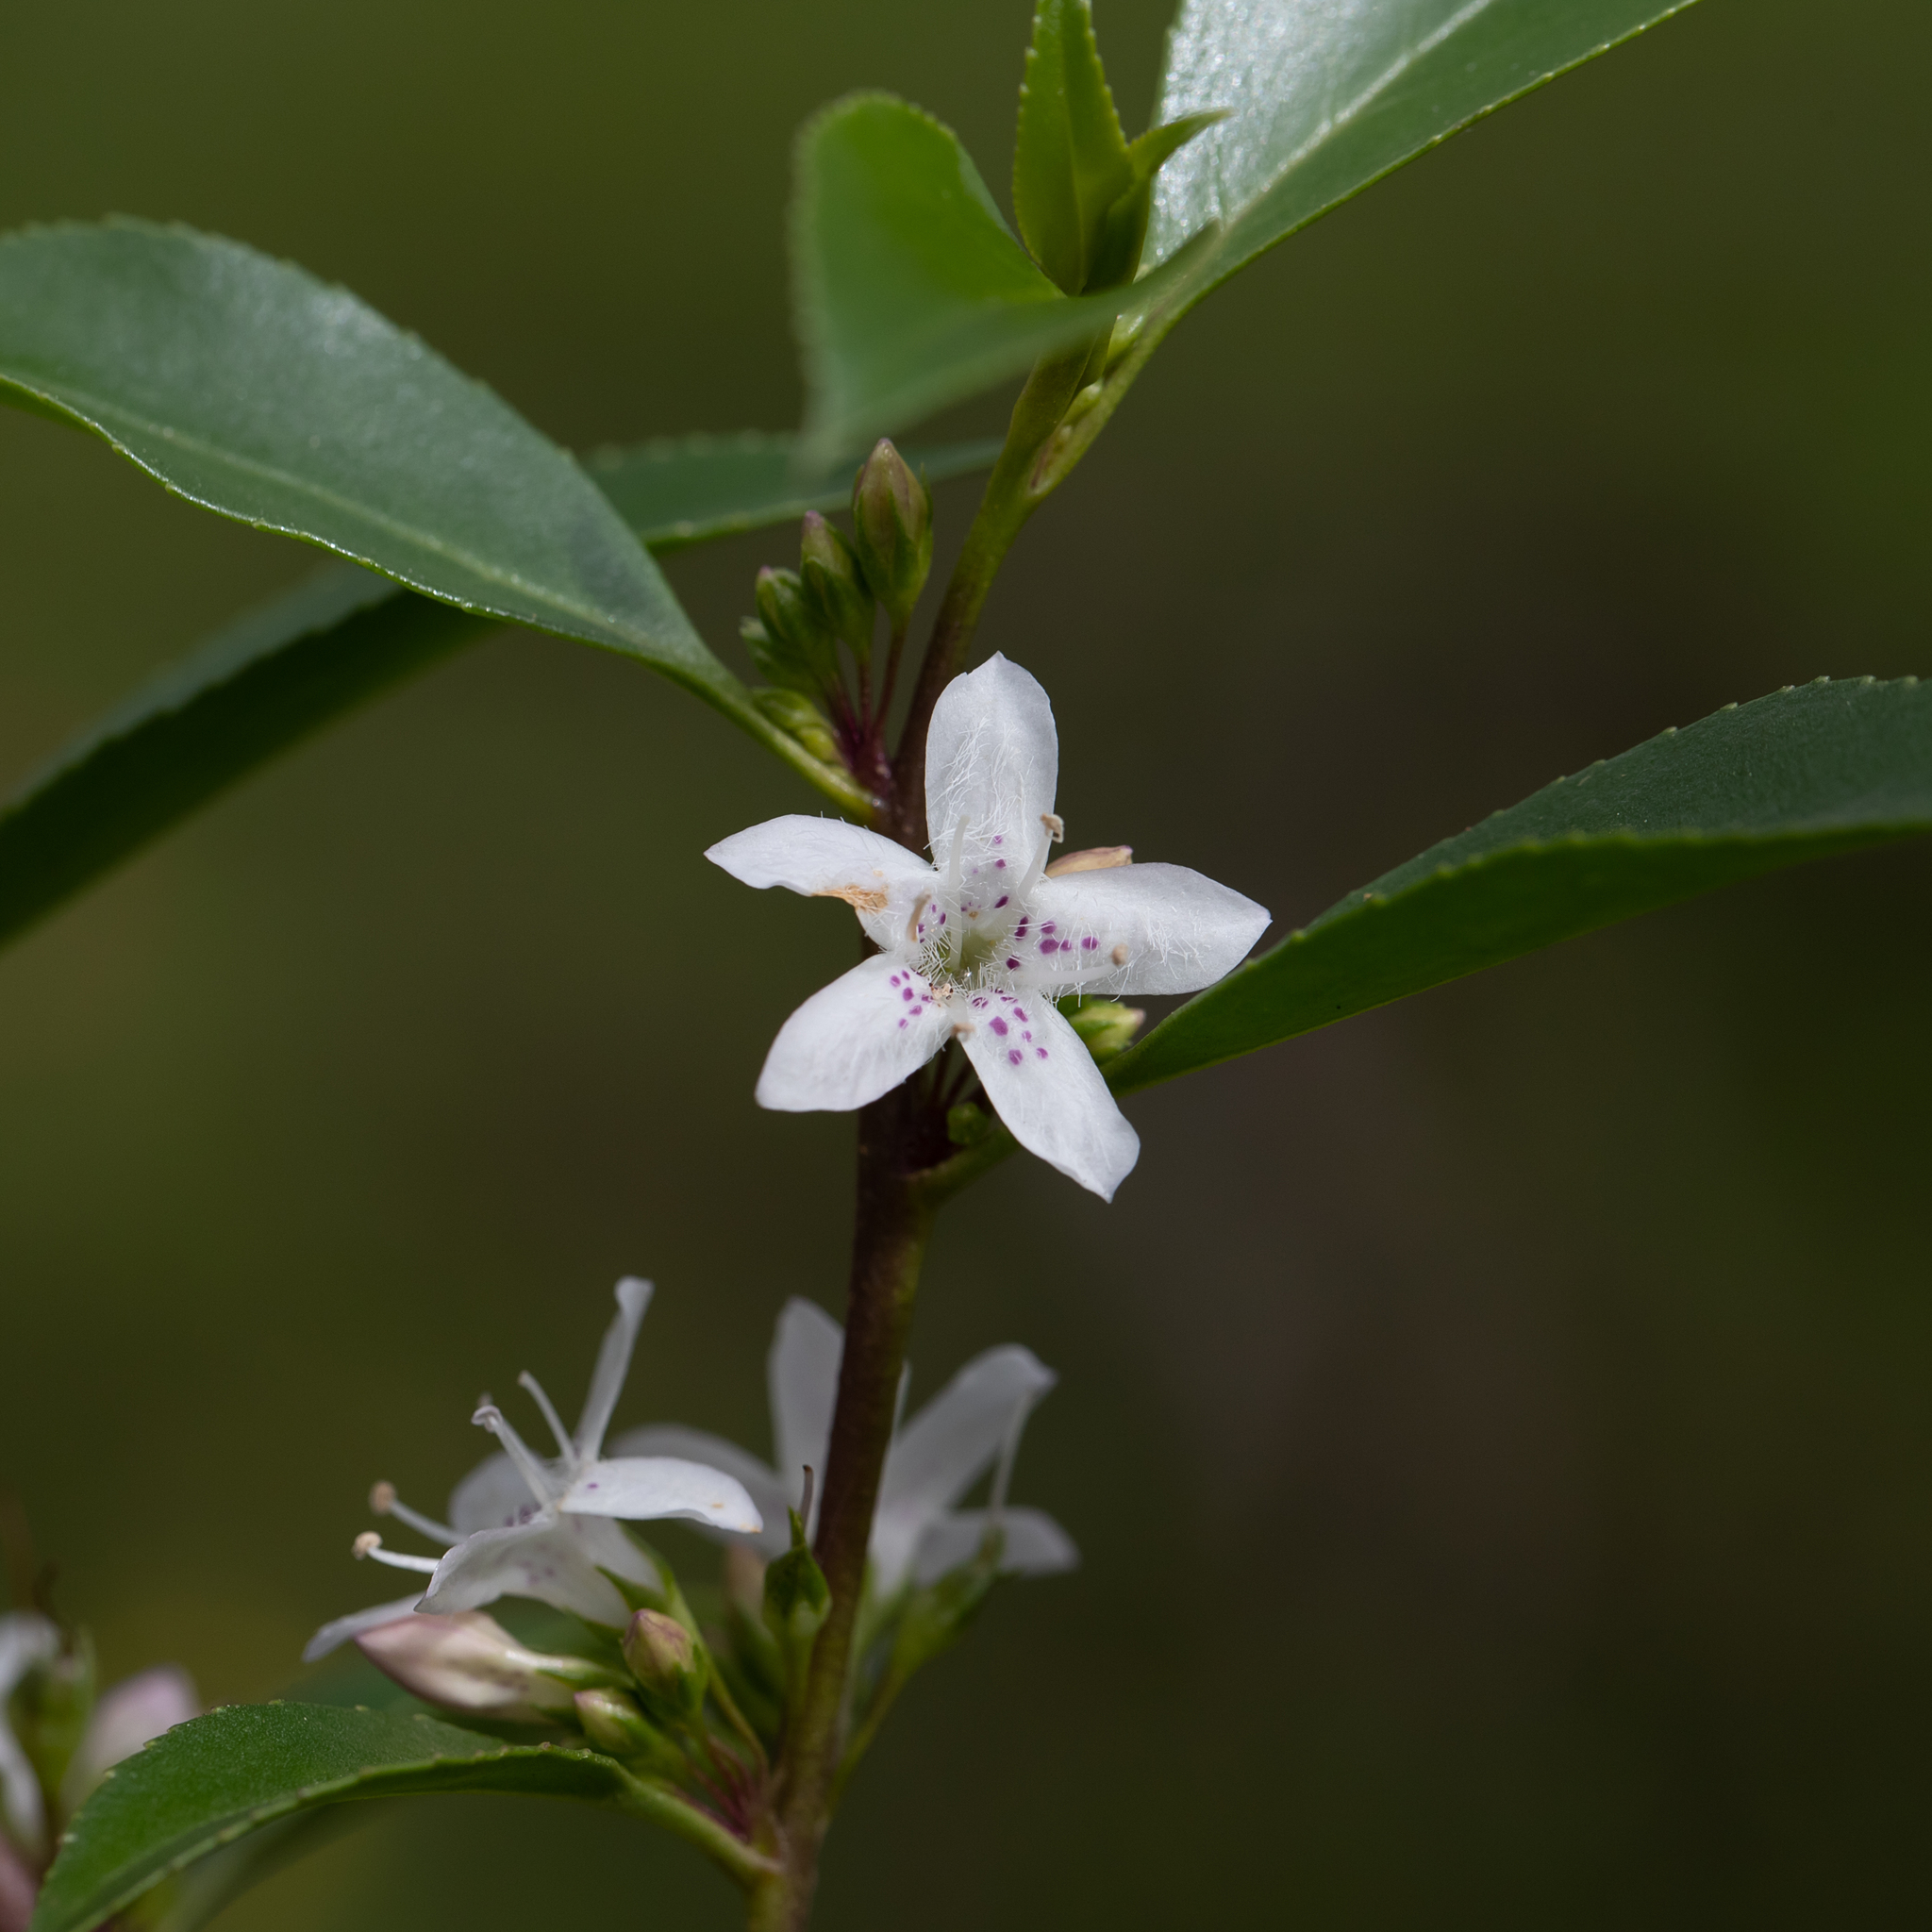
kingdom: Plantae
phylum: Tracheophyta
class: Magnoliopsida
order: Lamiales
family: Scrophulariaceae
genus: Myoporum
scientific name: Myoporum petiolatum
